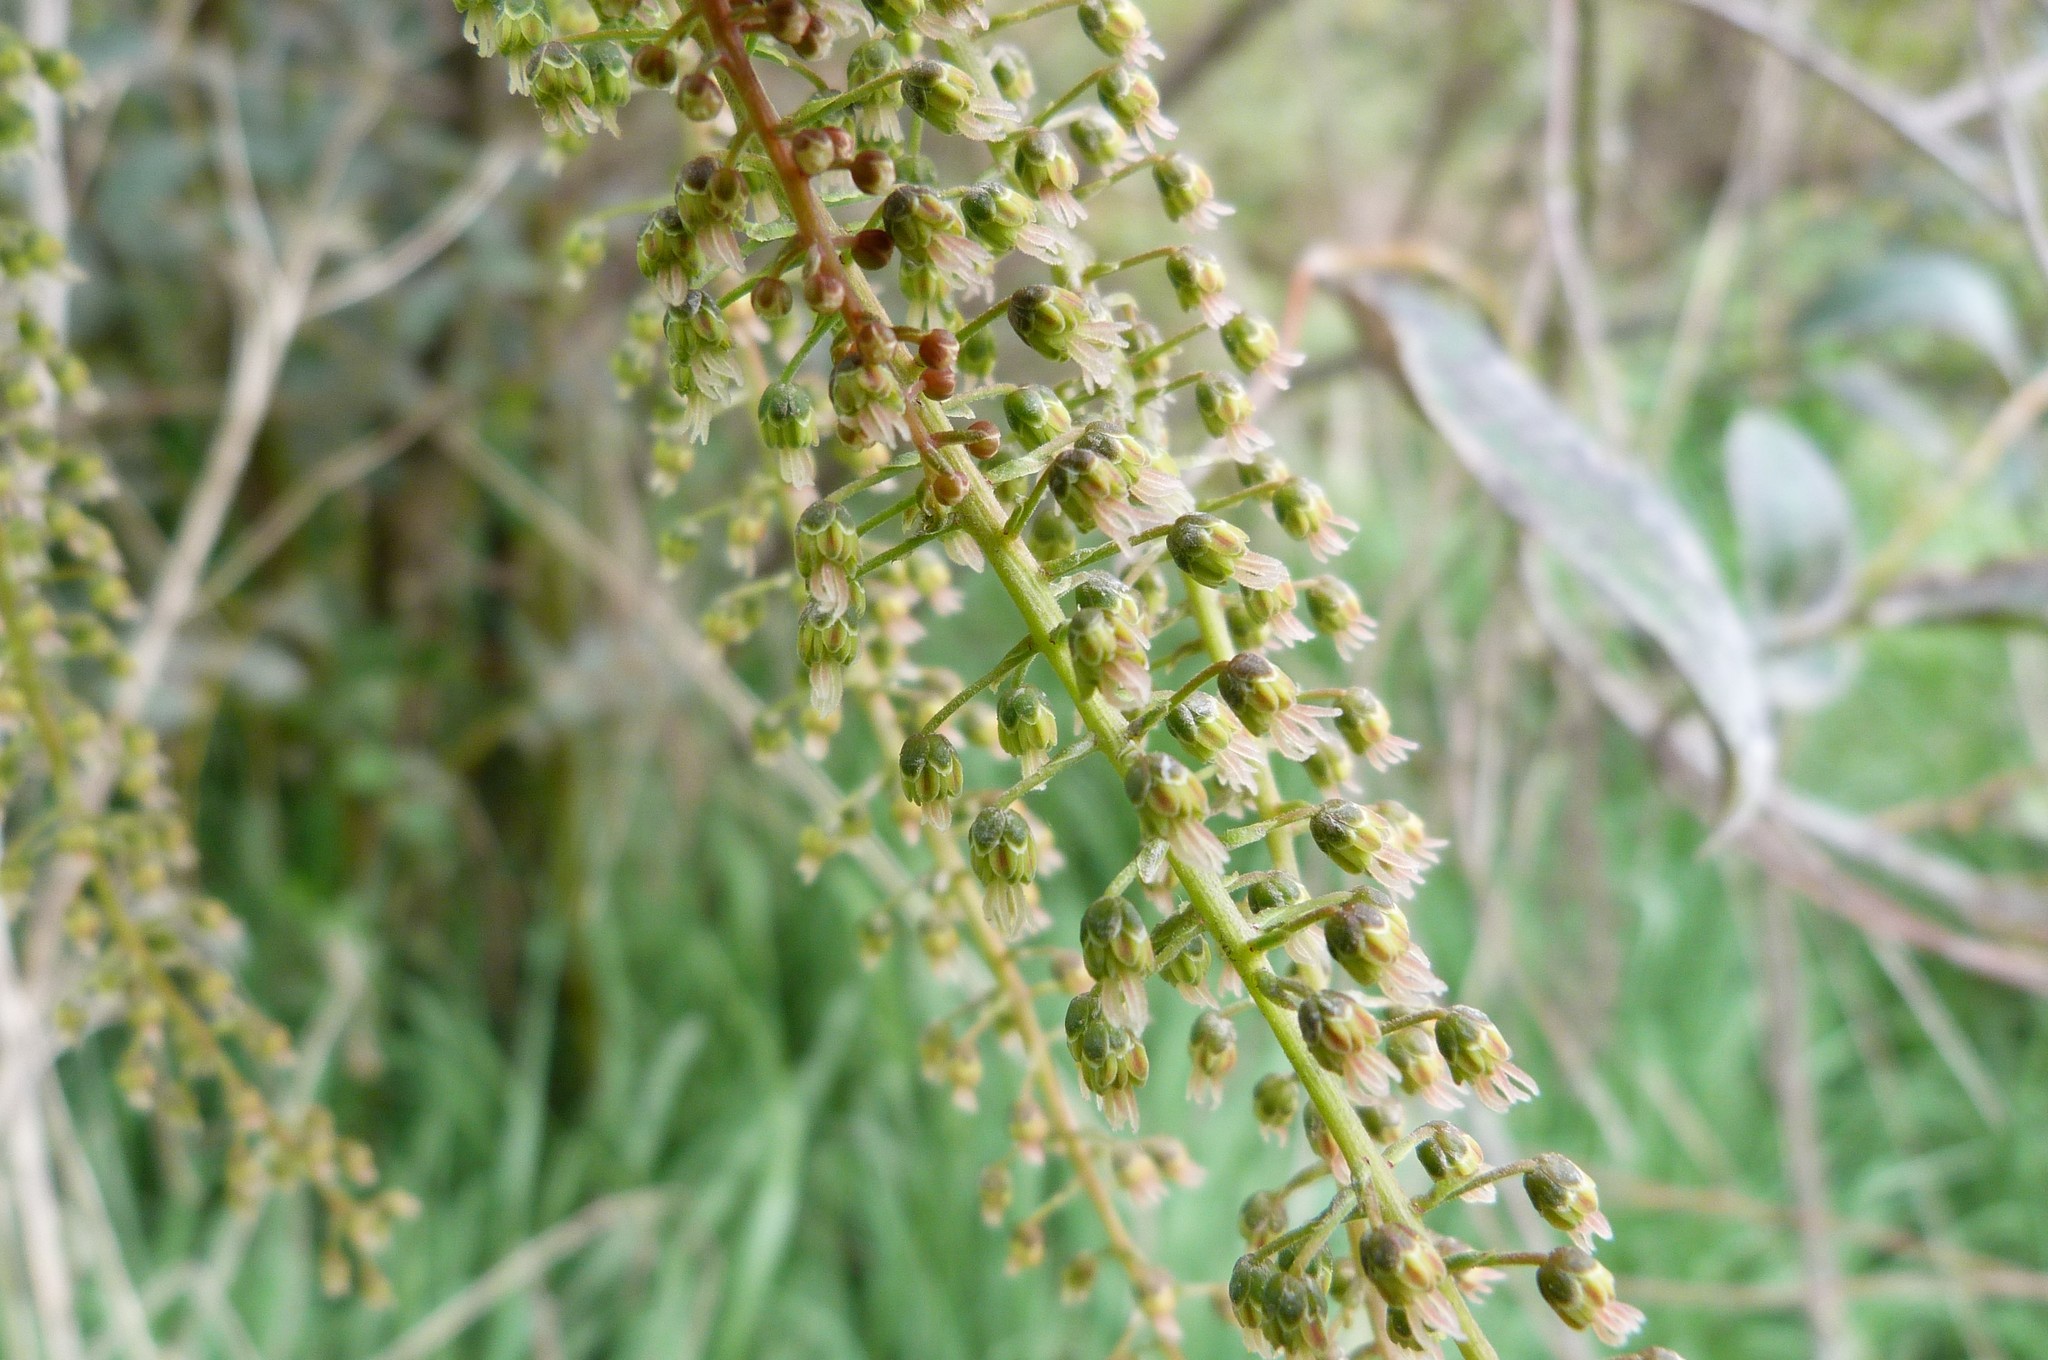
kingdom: Plantae
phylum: Tracheophyta
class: Magnoliopsida
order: Cucurbitales
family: Coriariaceae
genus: Coriaria
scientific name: Coriaria arborea
